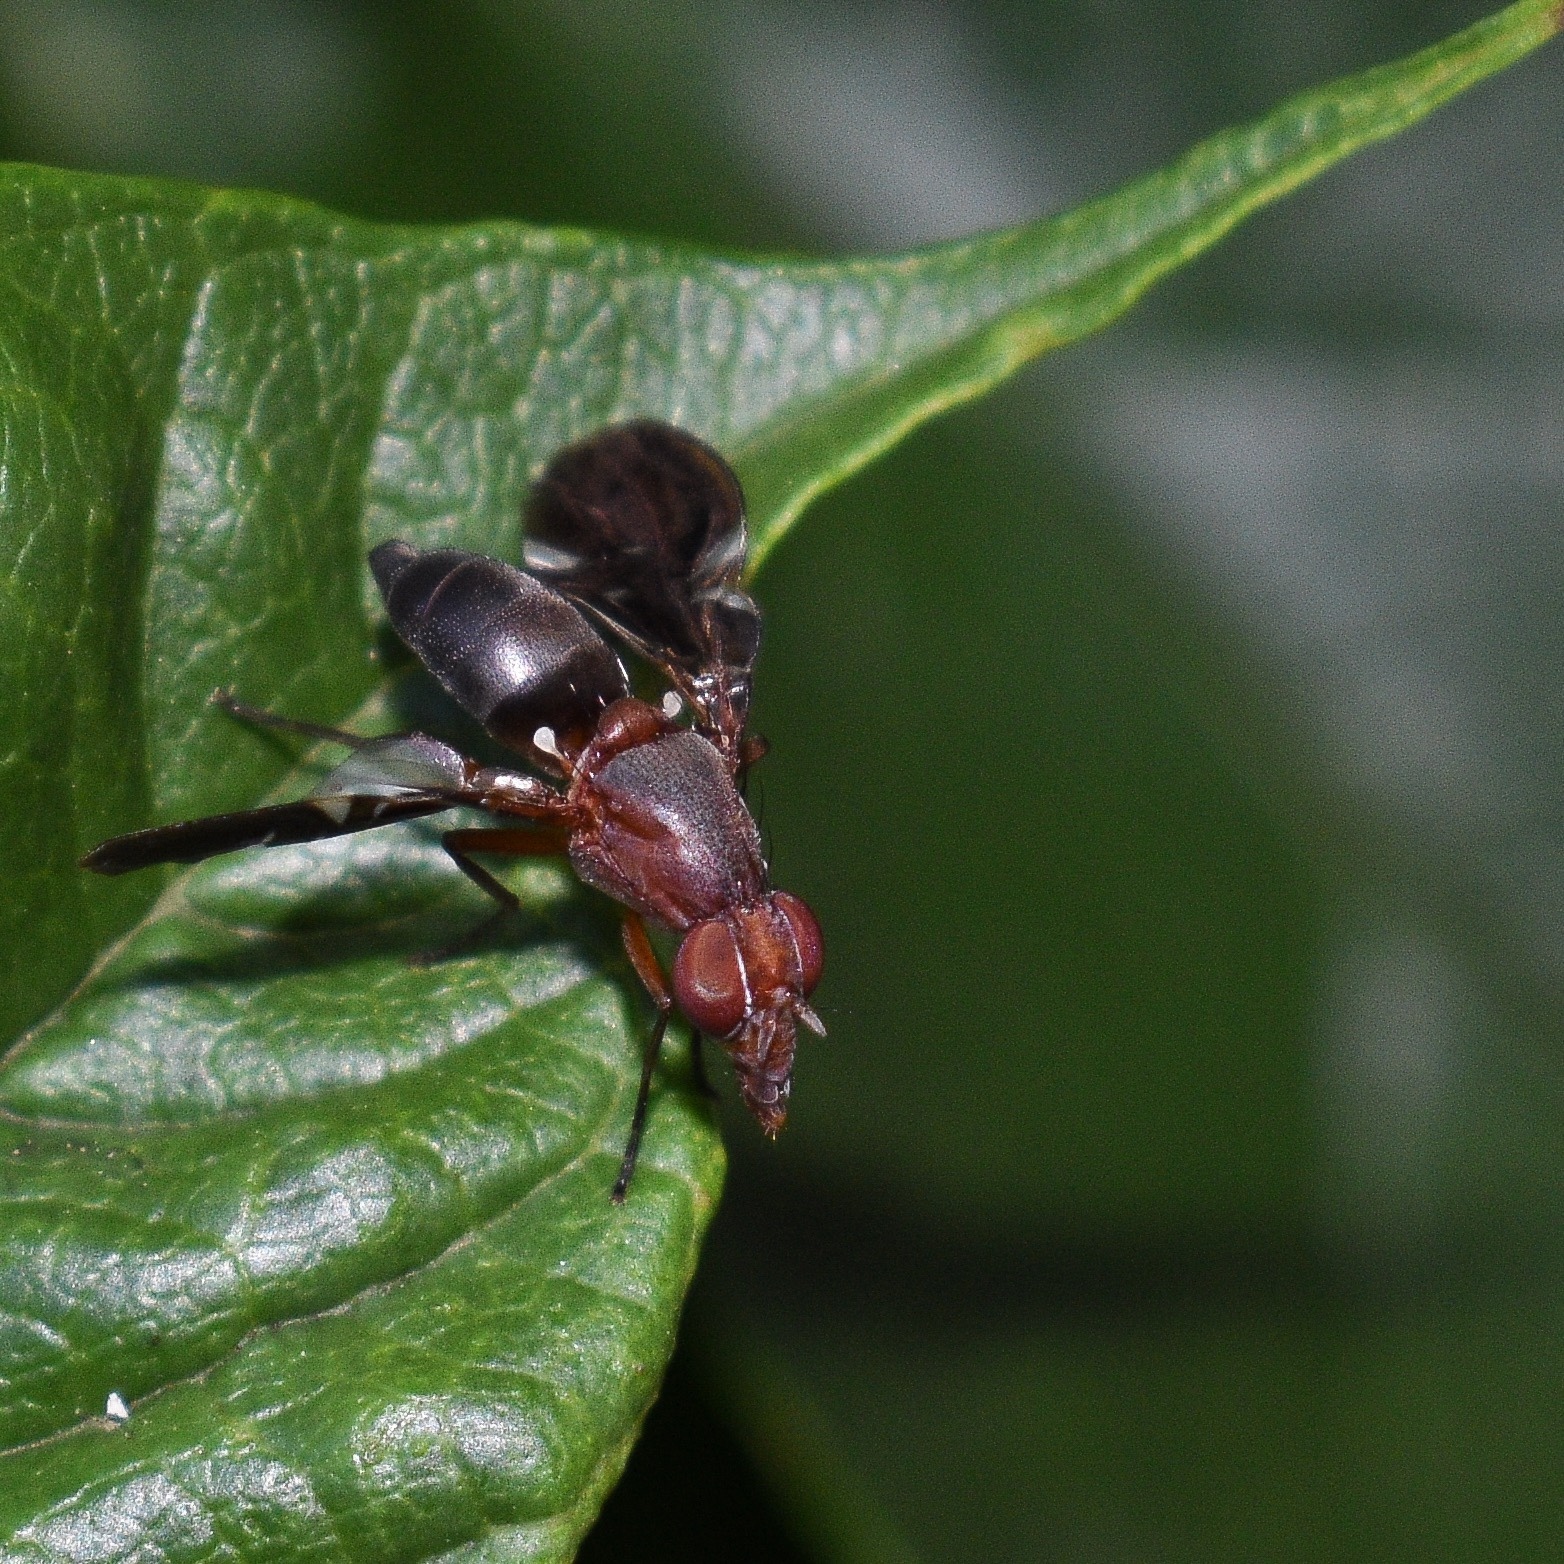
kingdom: Animalia
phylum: Arthropoda
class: Insecta
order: Diptera
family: Ulidiidae
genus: Delphinia
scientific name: Delphinia picta
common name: Common picture-winged fly
